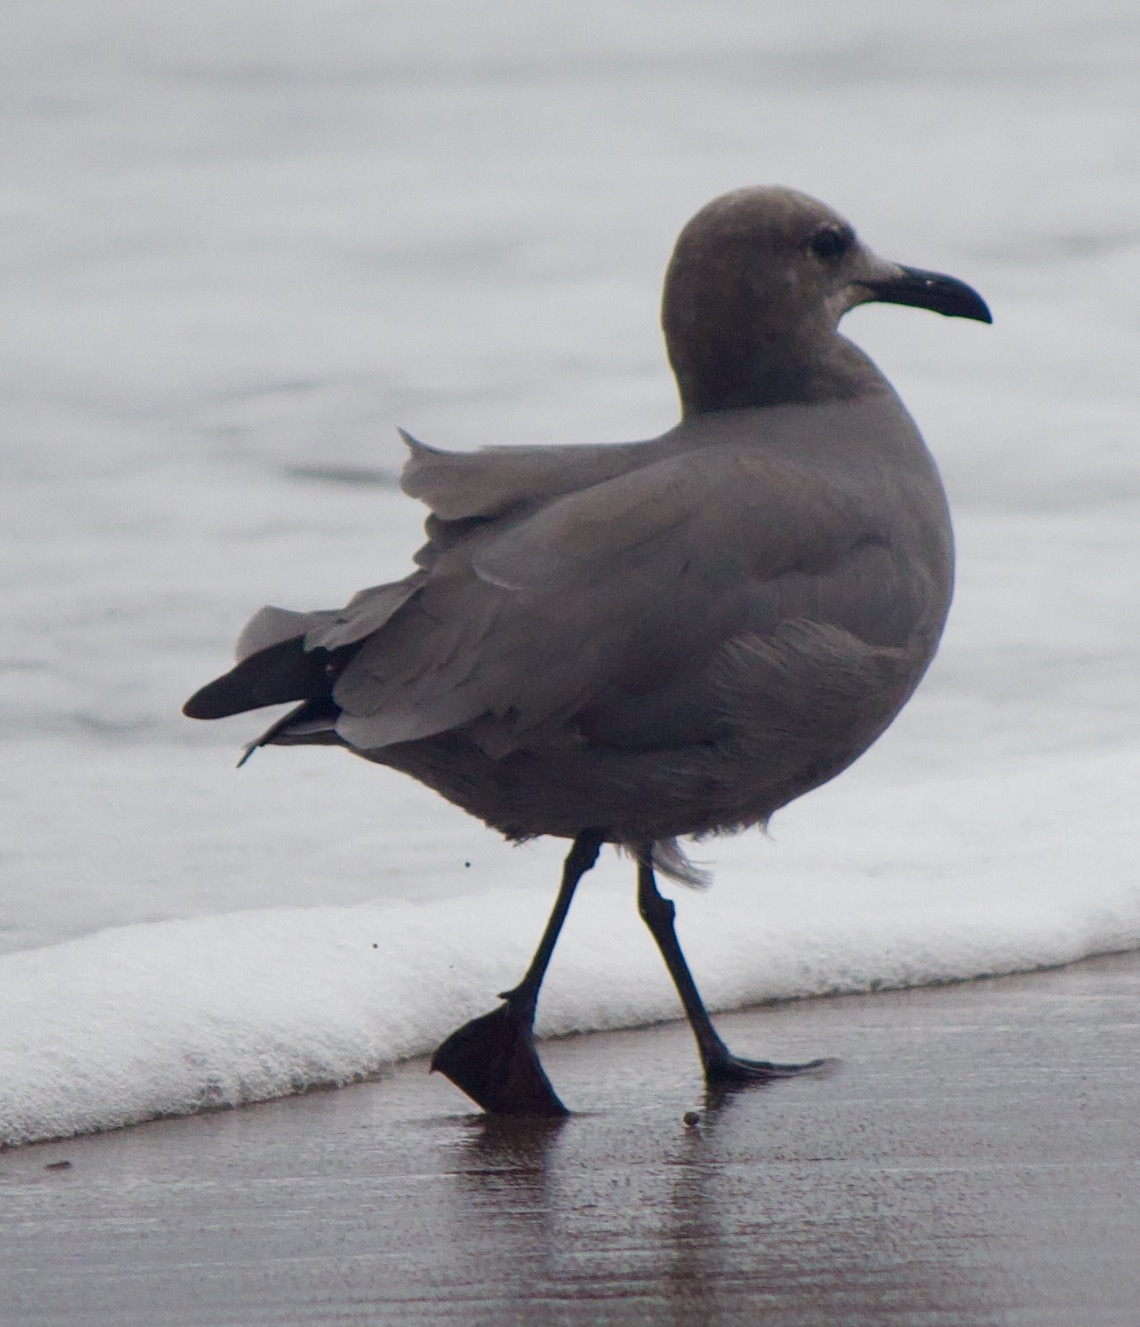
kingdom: Animalia
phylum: Chordata
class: Aves
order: Charadriiformes
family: Laridae
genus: Leucophaeus
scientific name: Leucophaeus modestus
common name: Gray gull
